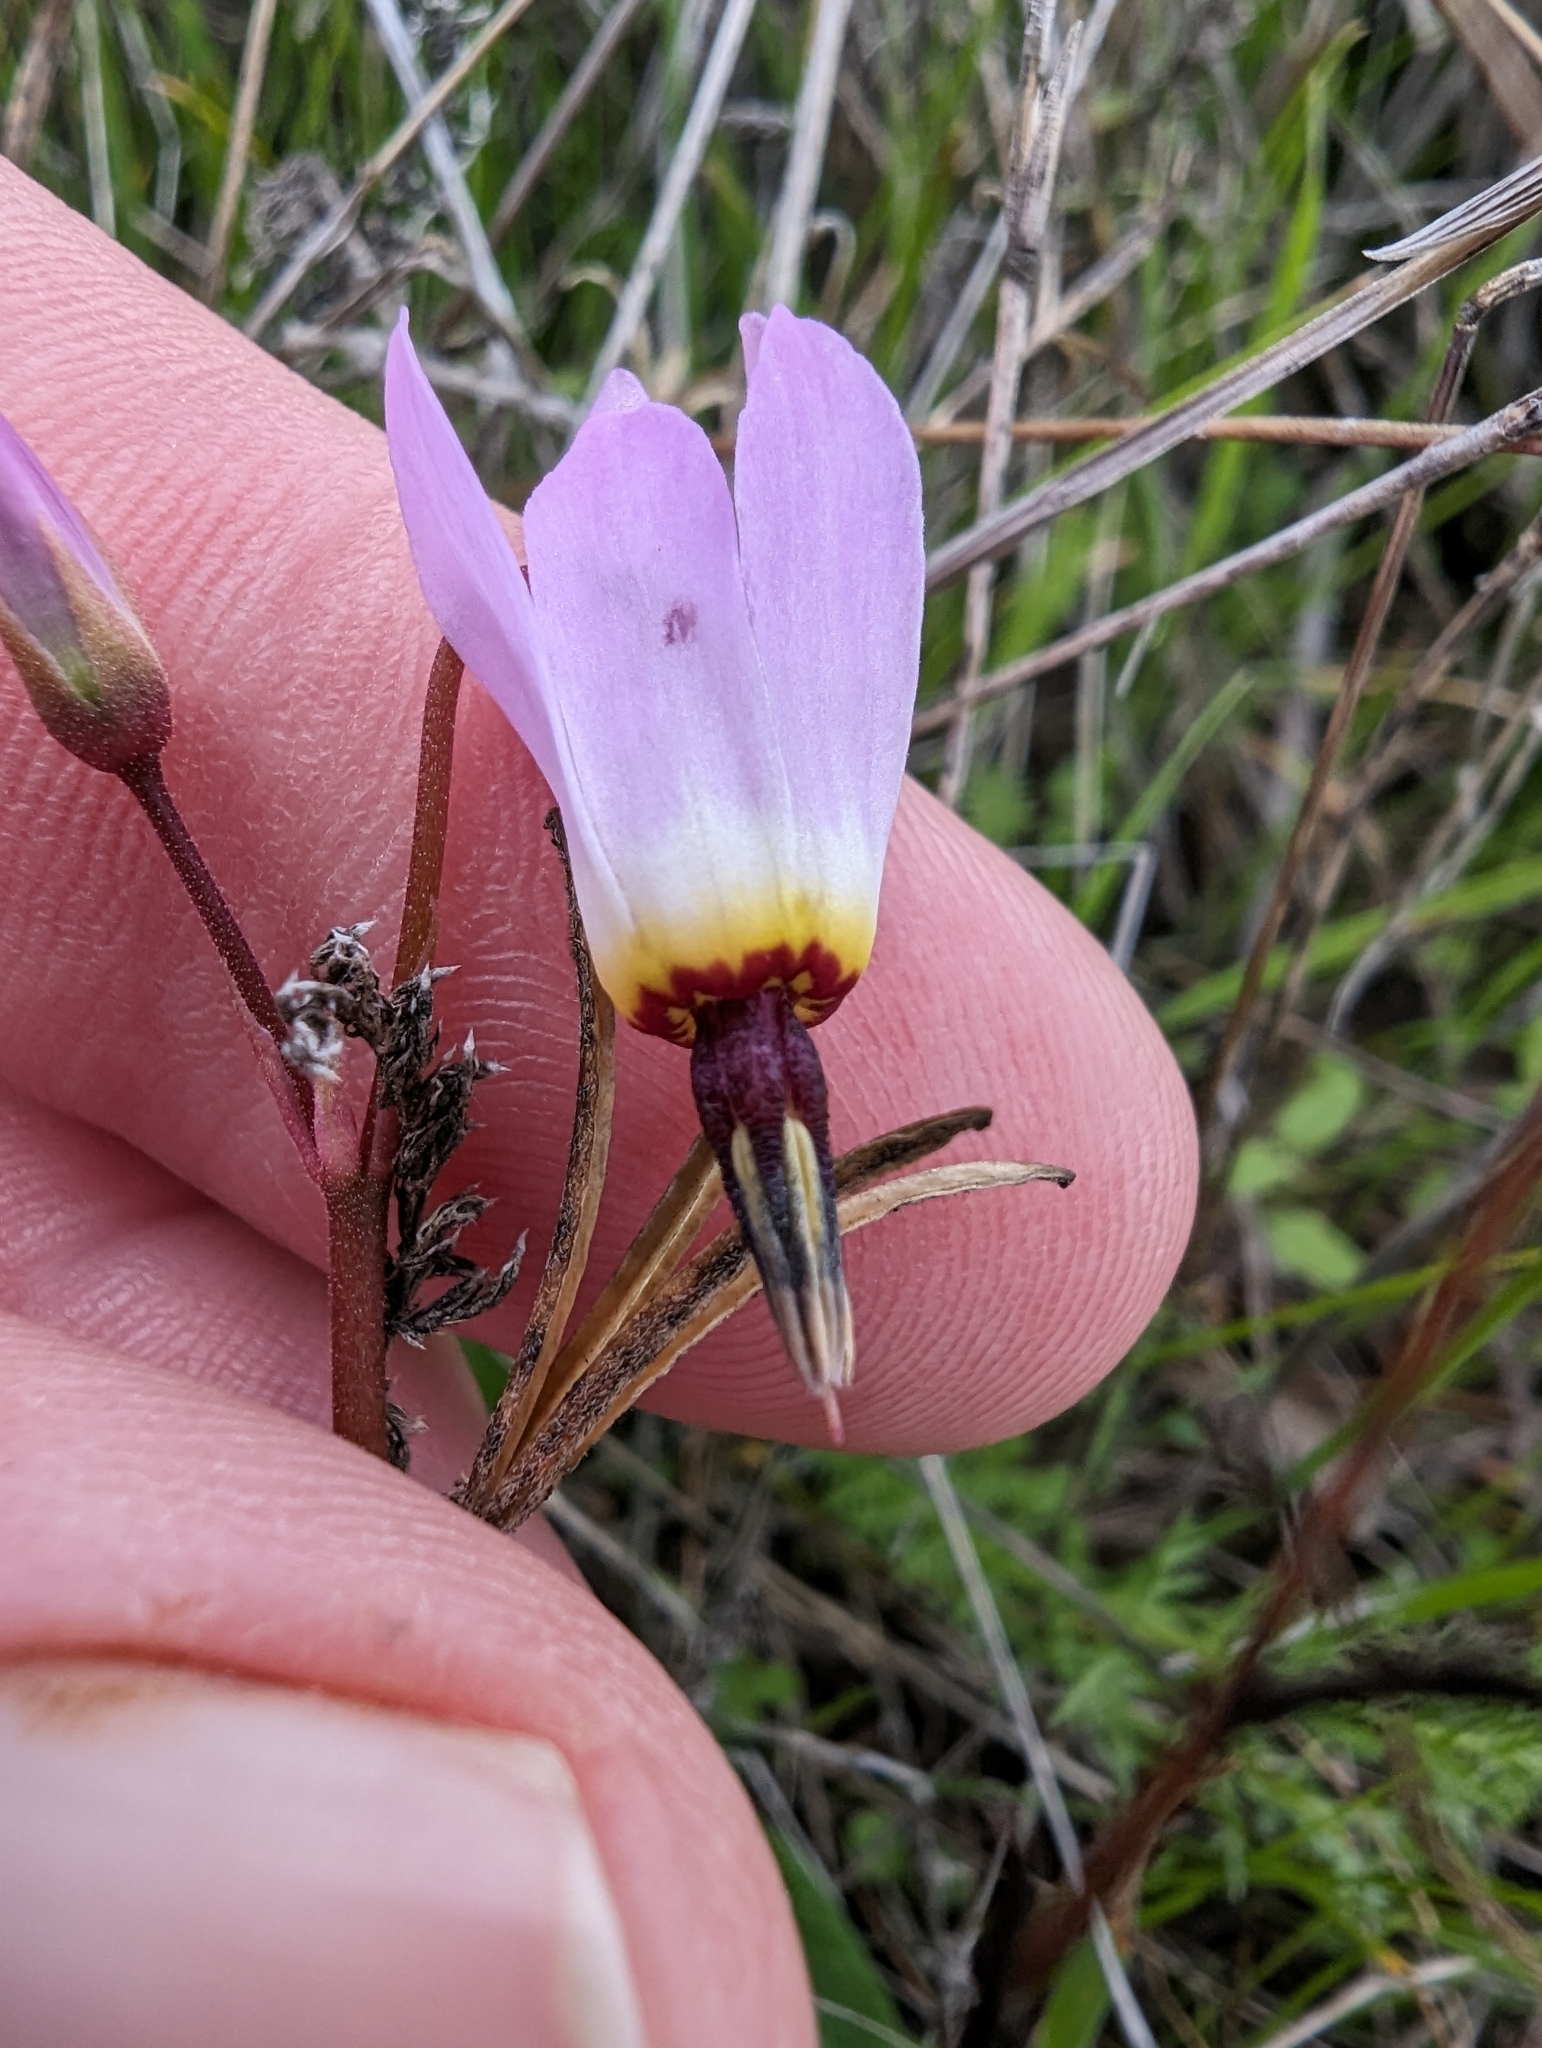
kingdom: Plantae
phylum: Tracheophyta
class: Magnoliopsida
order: Ericales
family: Primulaceae
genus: Dodecatheon
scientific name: Dodecatheon hendersonii
